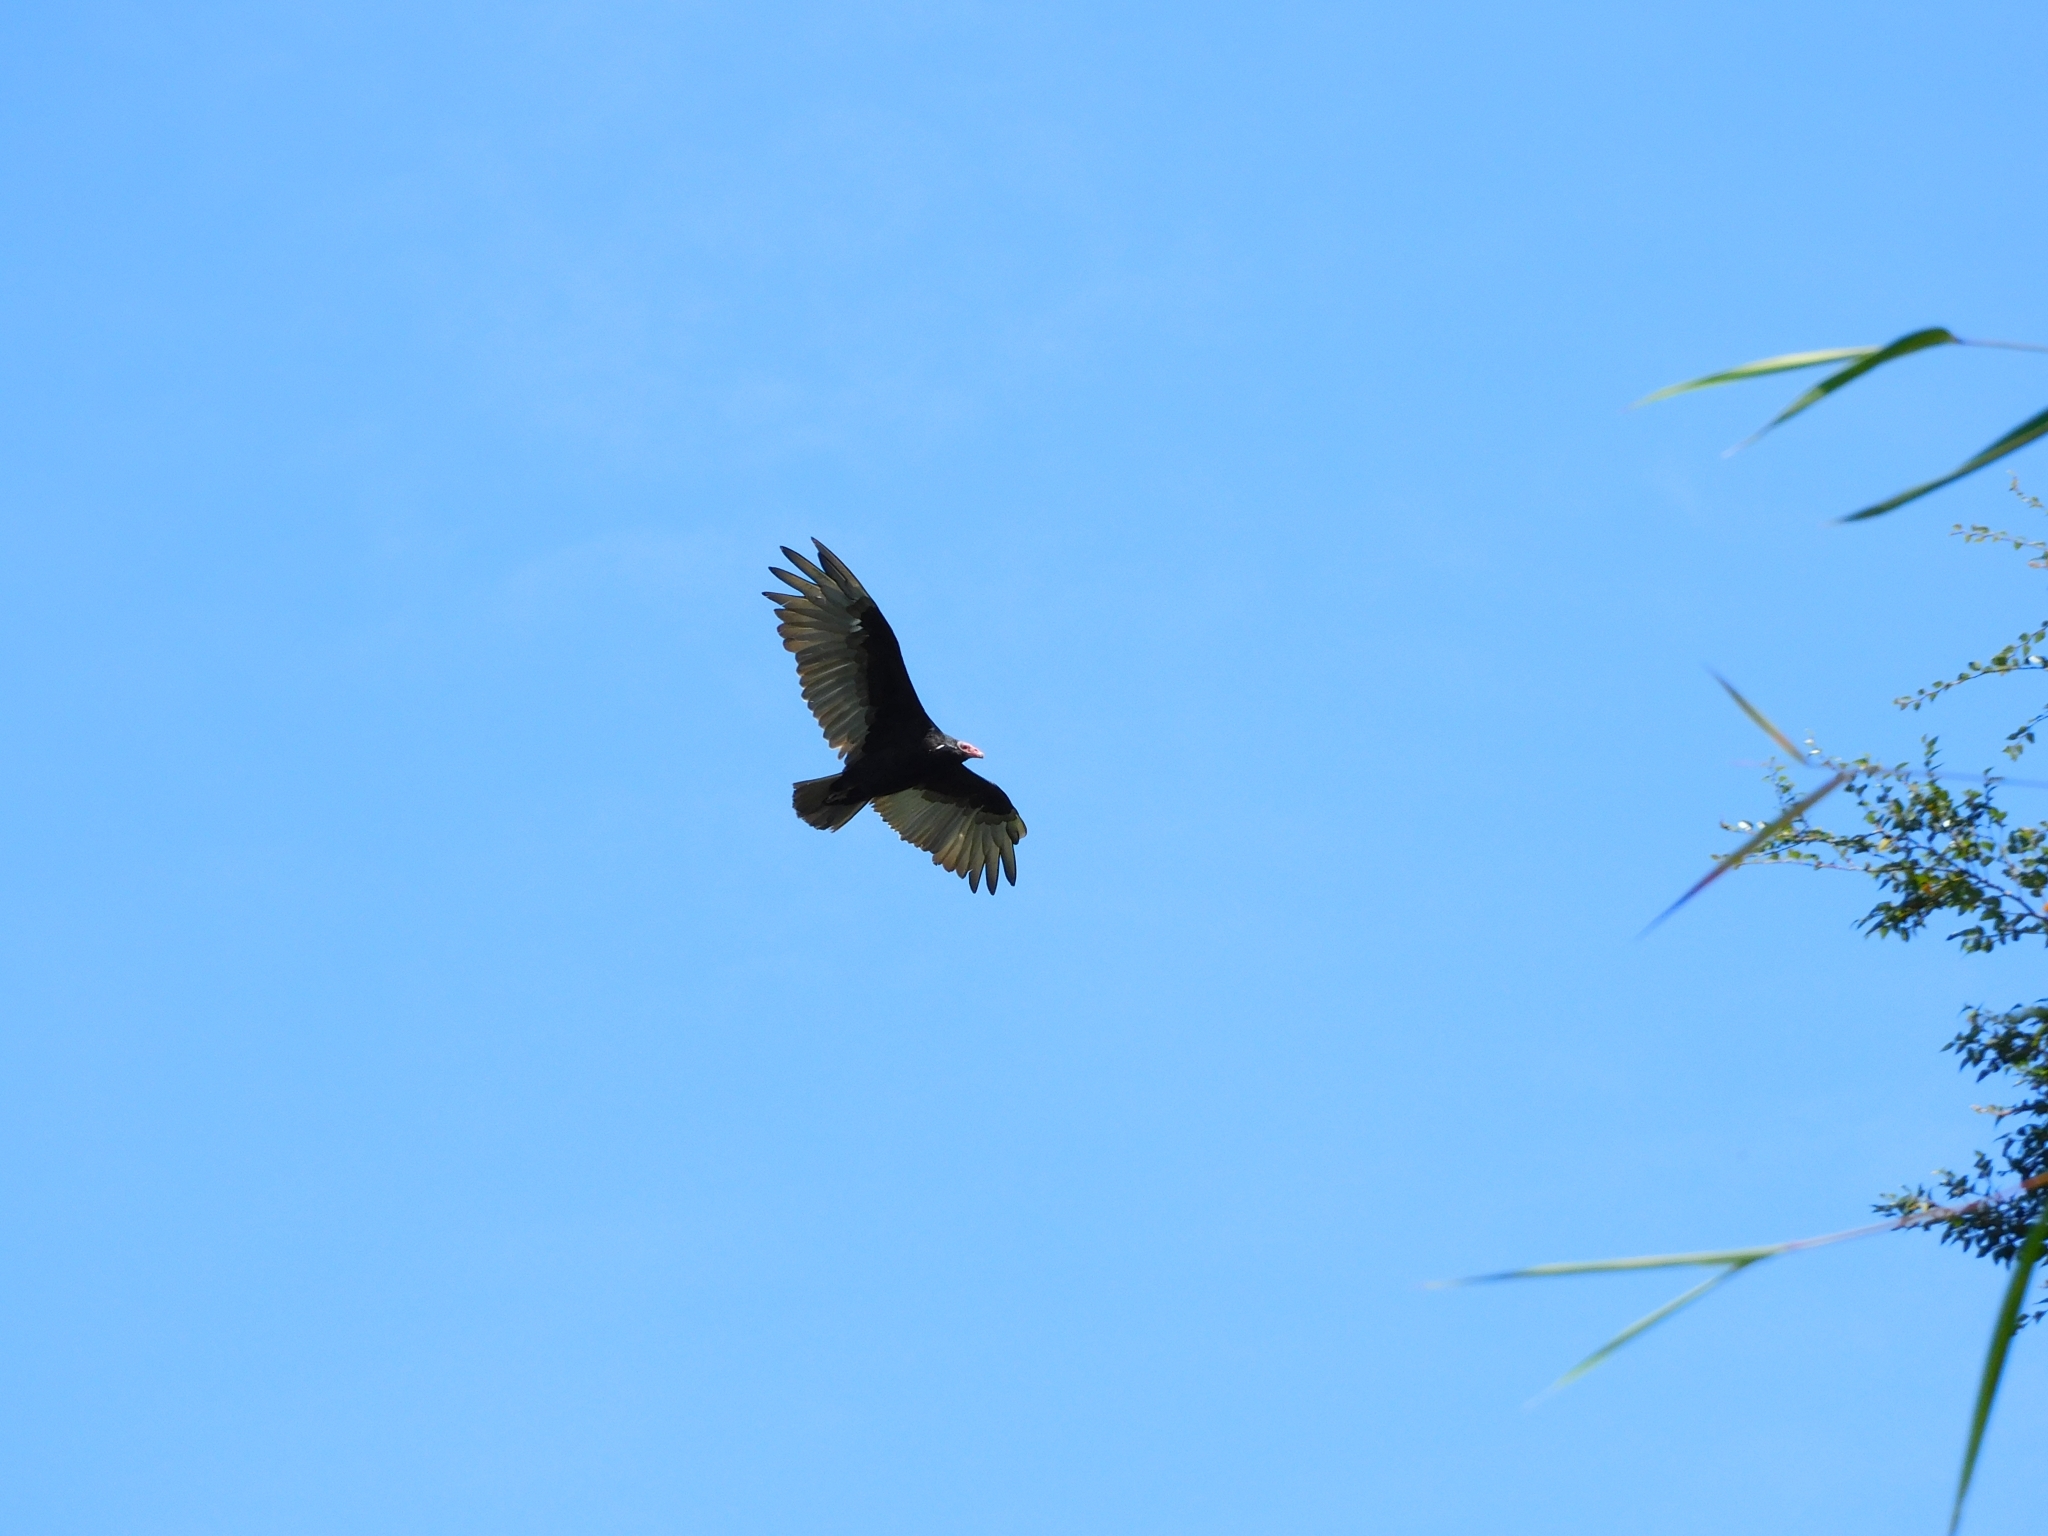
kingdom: Animalia
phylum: Chordata
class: Aves
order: Accipitriformes
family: Cathartidae
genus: Cathartes
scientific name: Cathartes aura
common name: Turkey vulture
